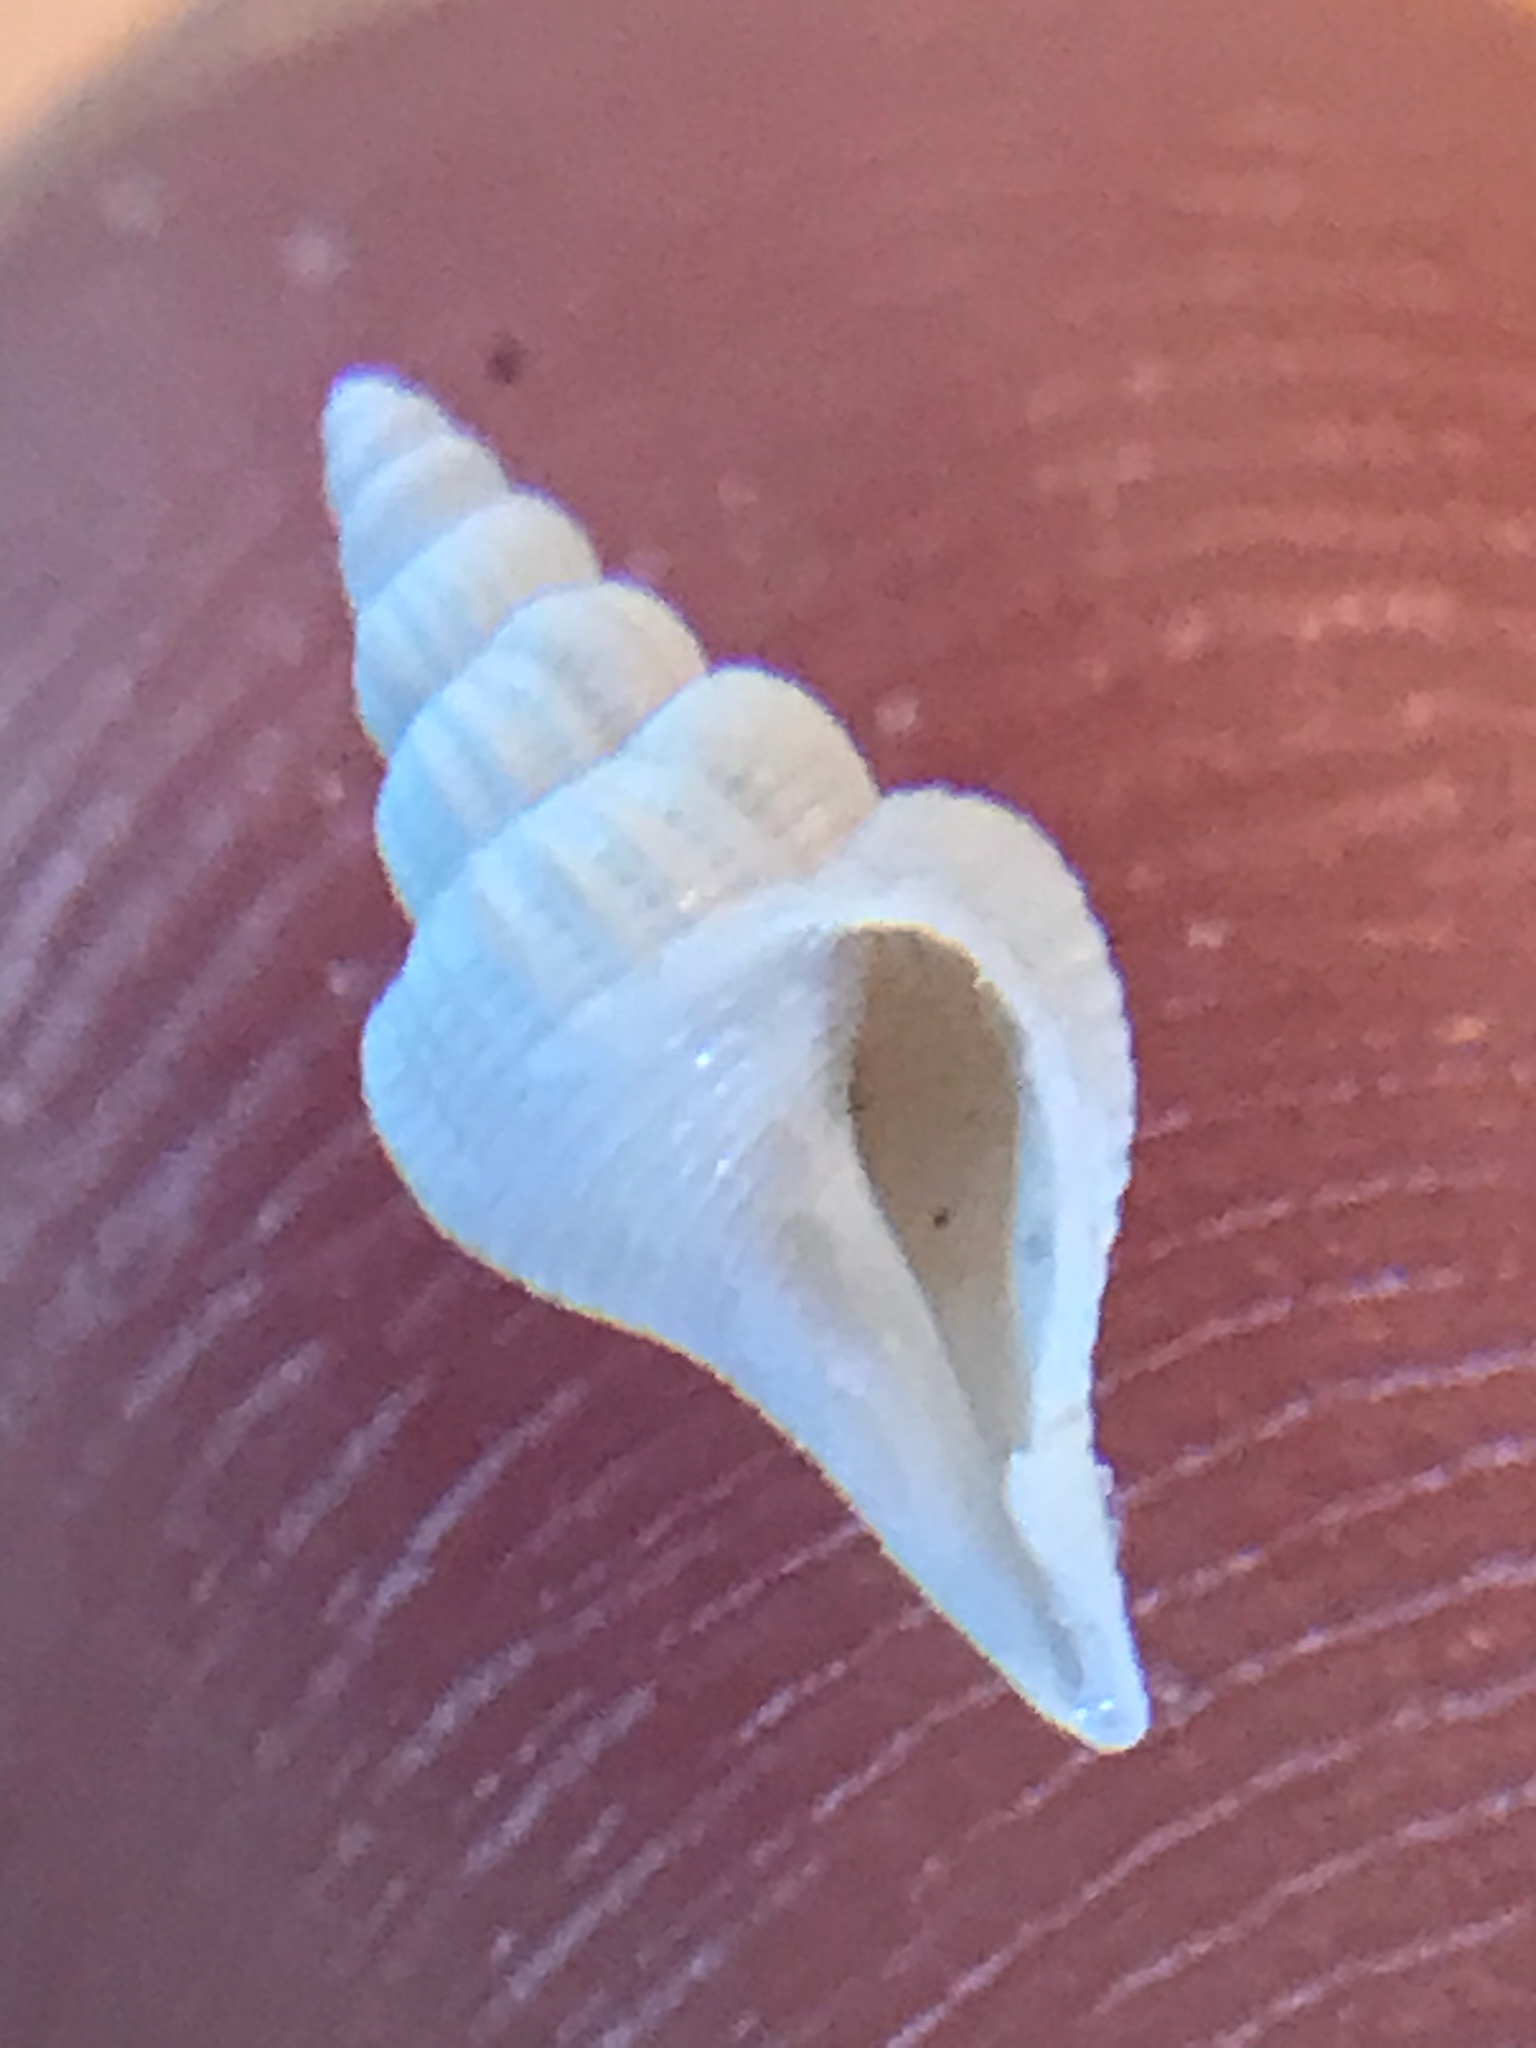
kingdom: Animalia
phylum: Mollusca
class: Gastropoda
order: Littorinimorpha
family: Strombidae
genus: Strombus
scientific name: Strombus alatus
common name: Florida fighting conch
